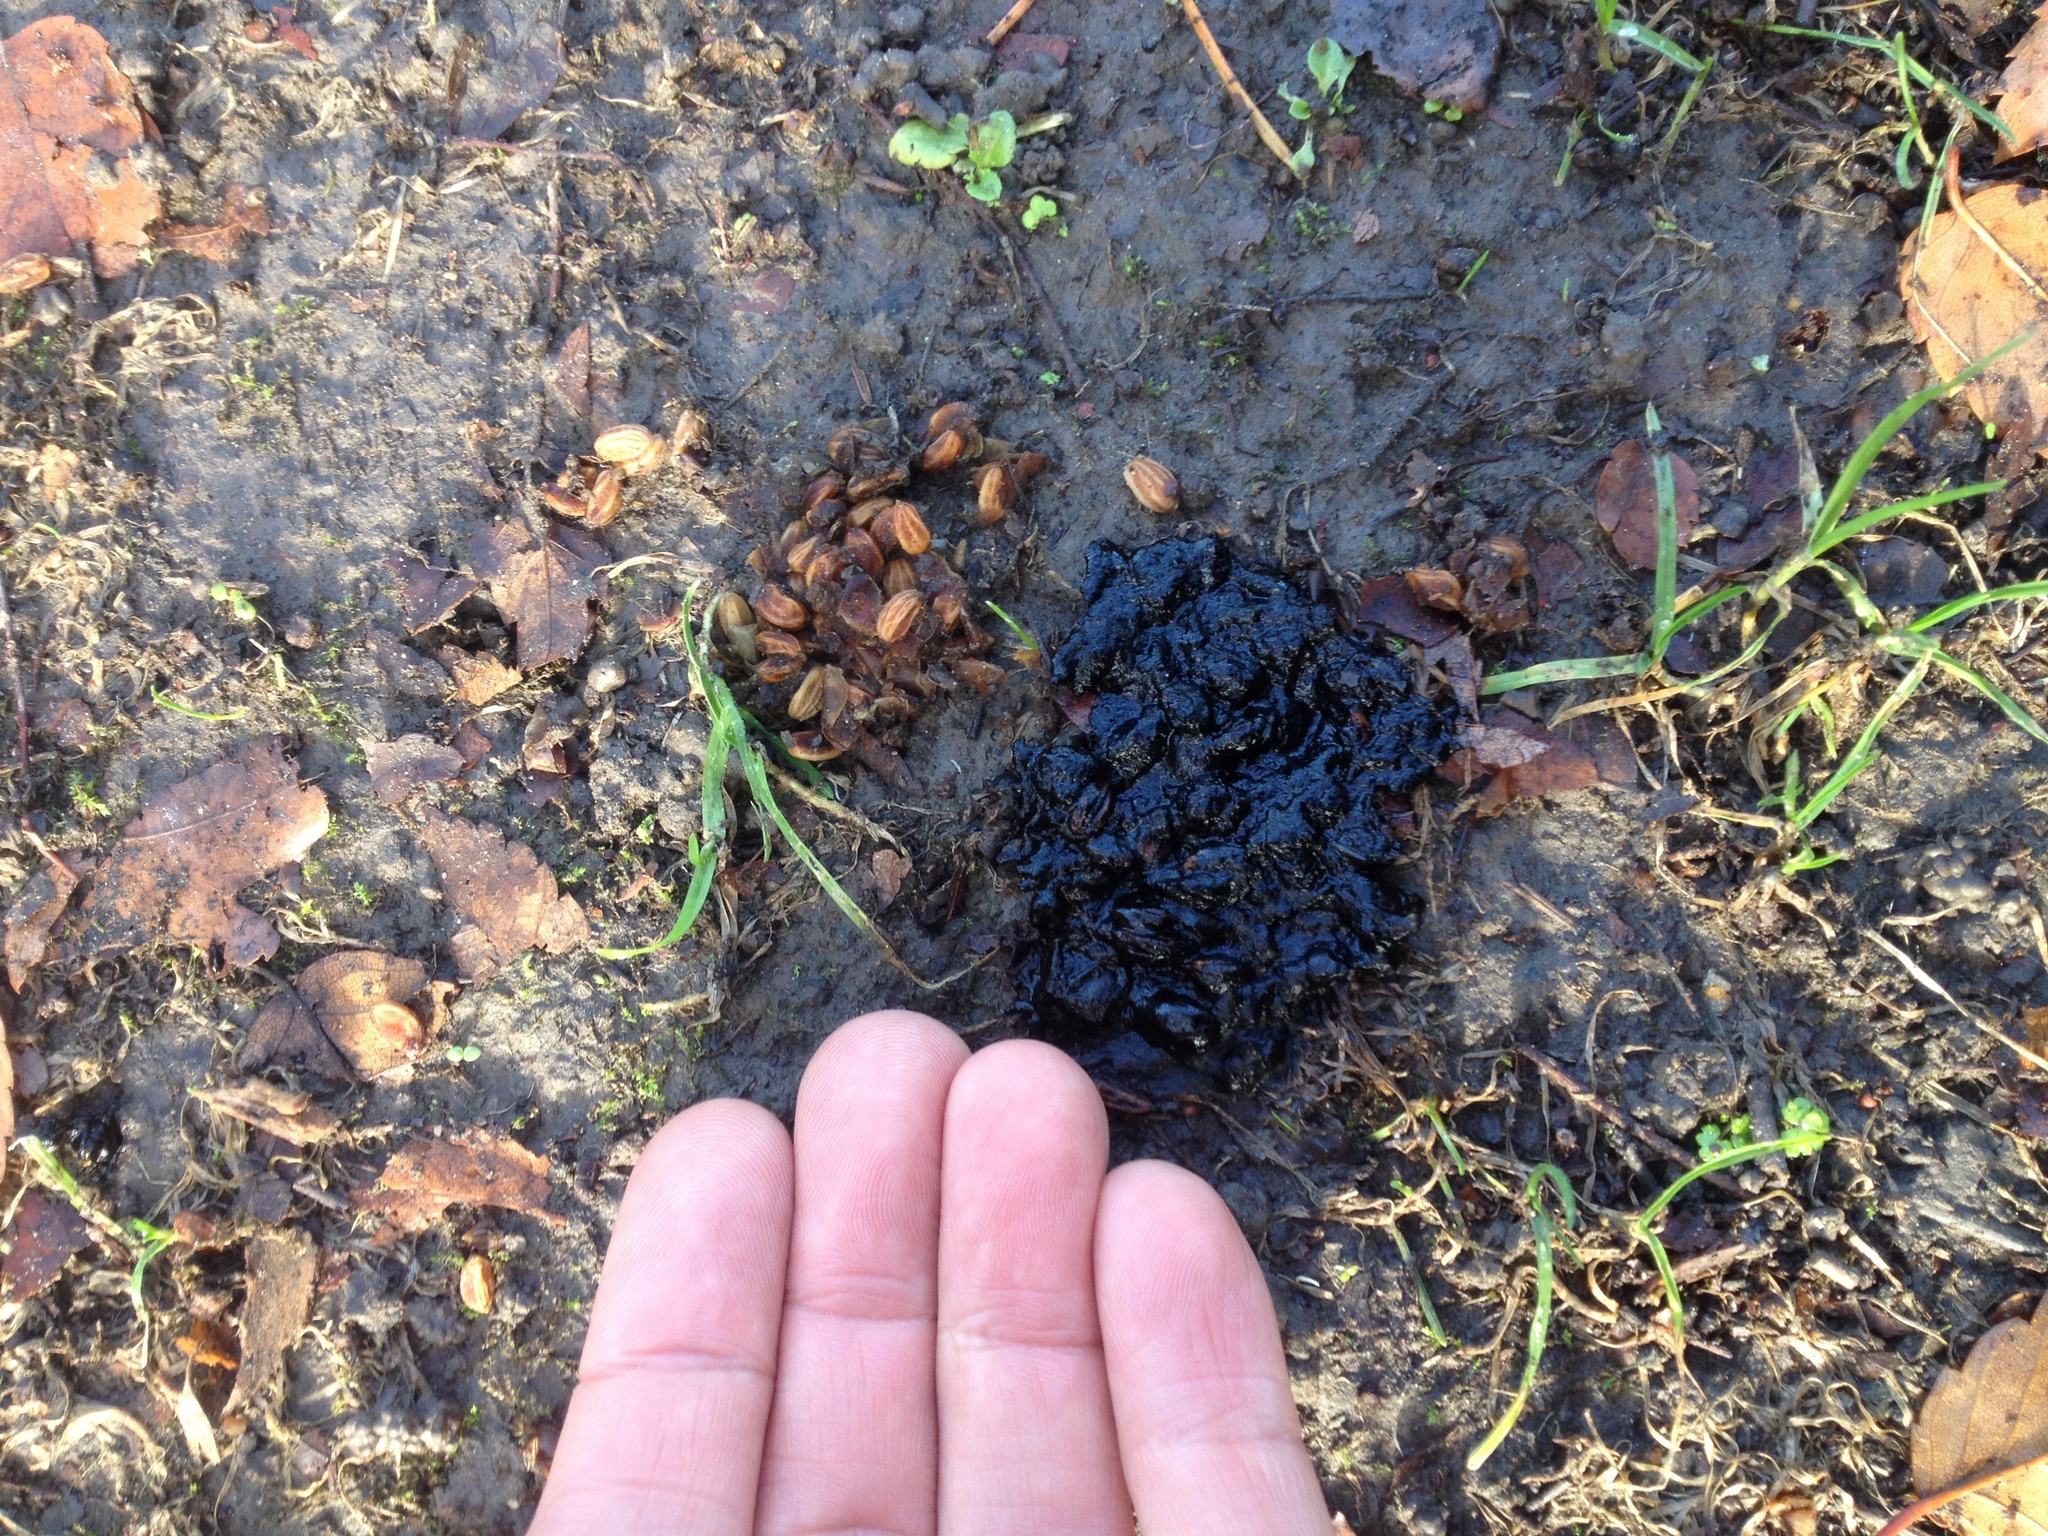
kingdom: Animalia
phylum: Chordata
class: Aves
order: Columbiformes
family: Columbidae
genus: Hemiphaga
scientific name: Hemiphaga novaeseelandiae
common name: New zealand pigeon
